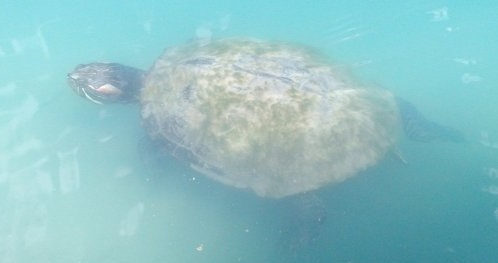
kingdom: Animalia
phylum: Chordata
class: Testudines
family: Emydidae
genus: Trachemys
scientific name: Trachemys scripta
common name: Slider
